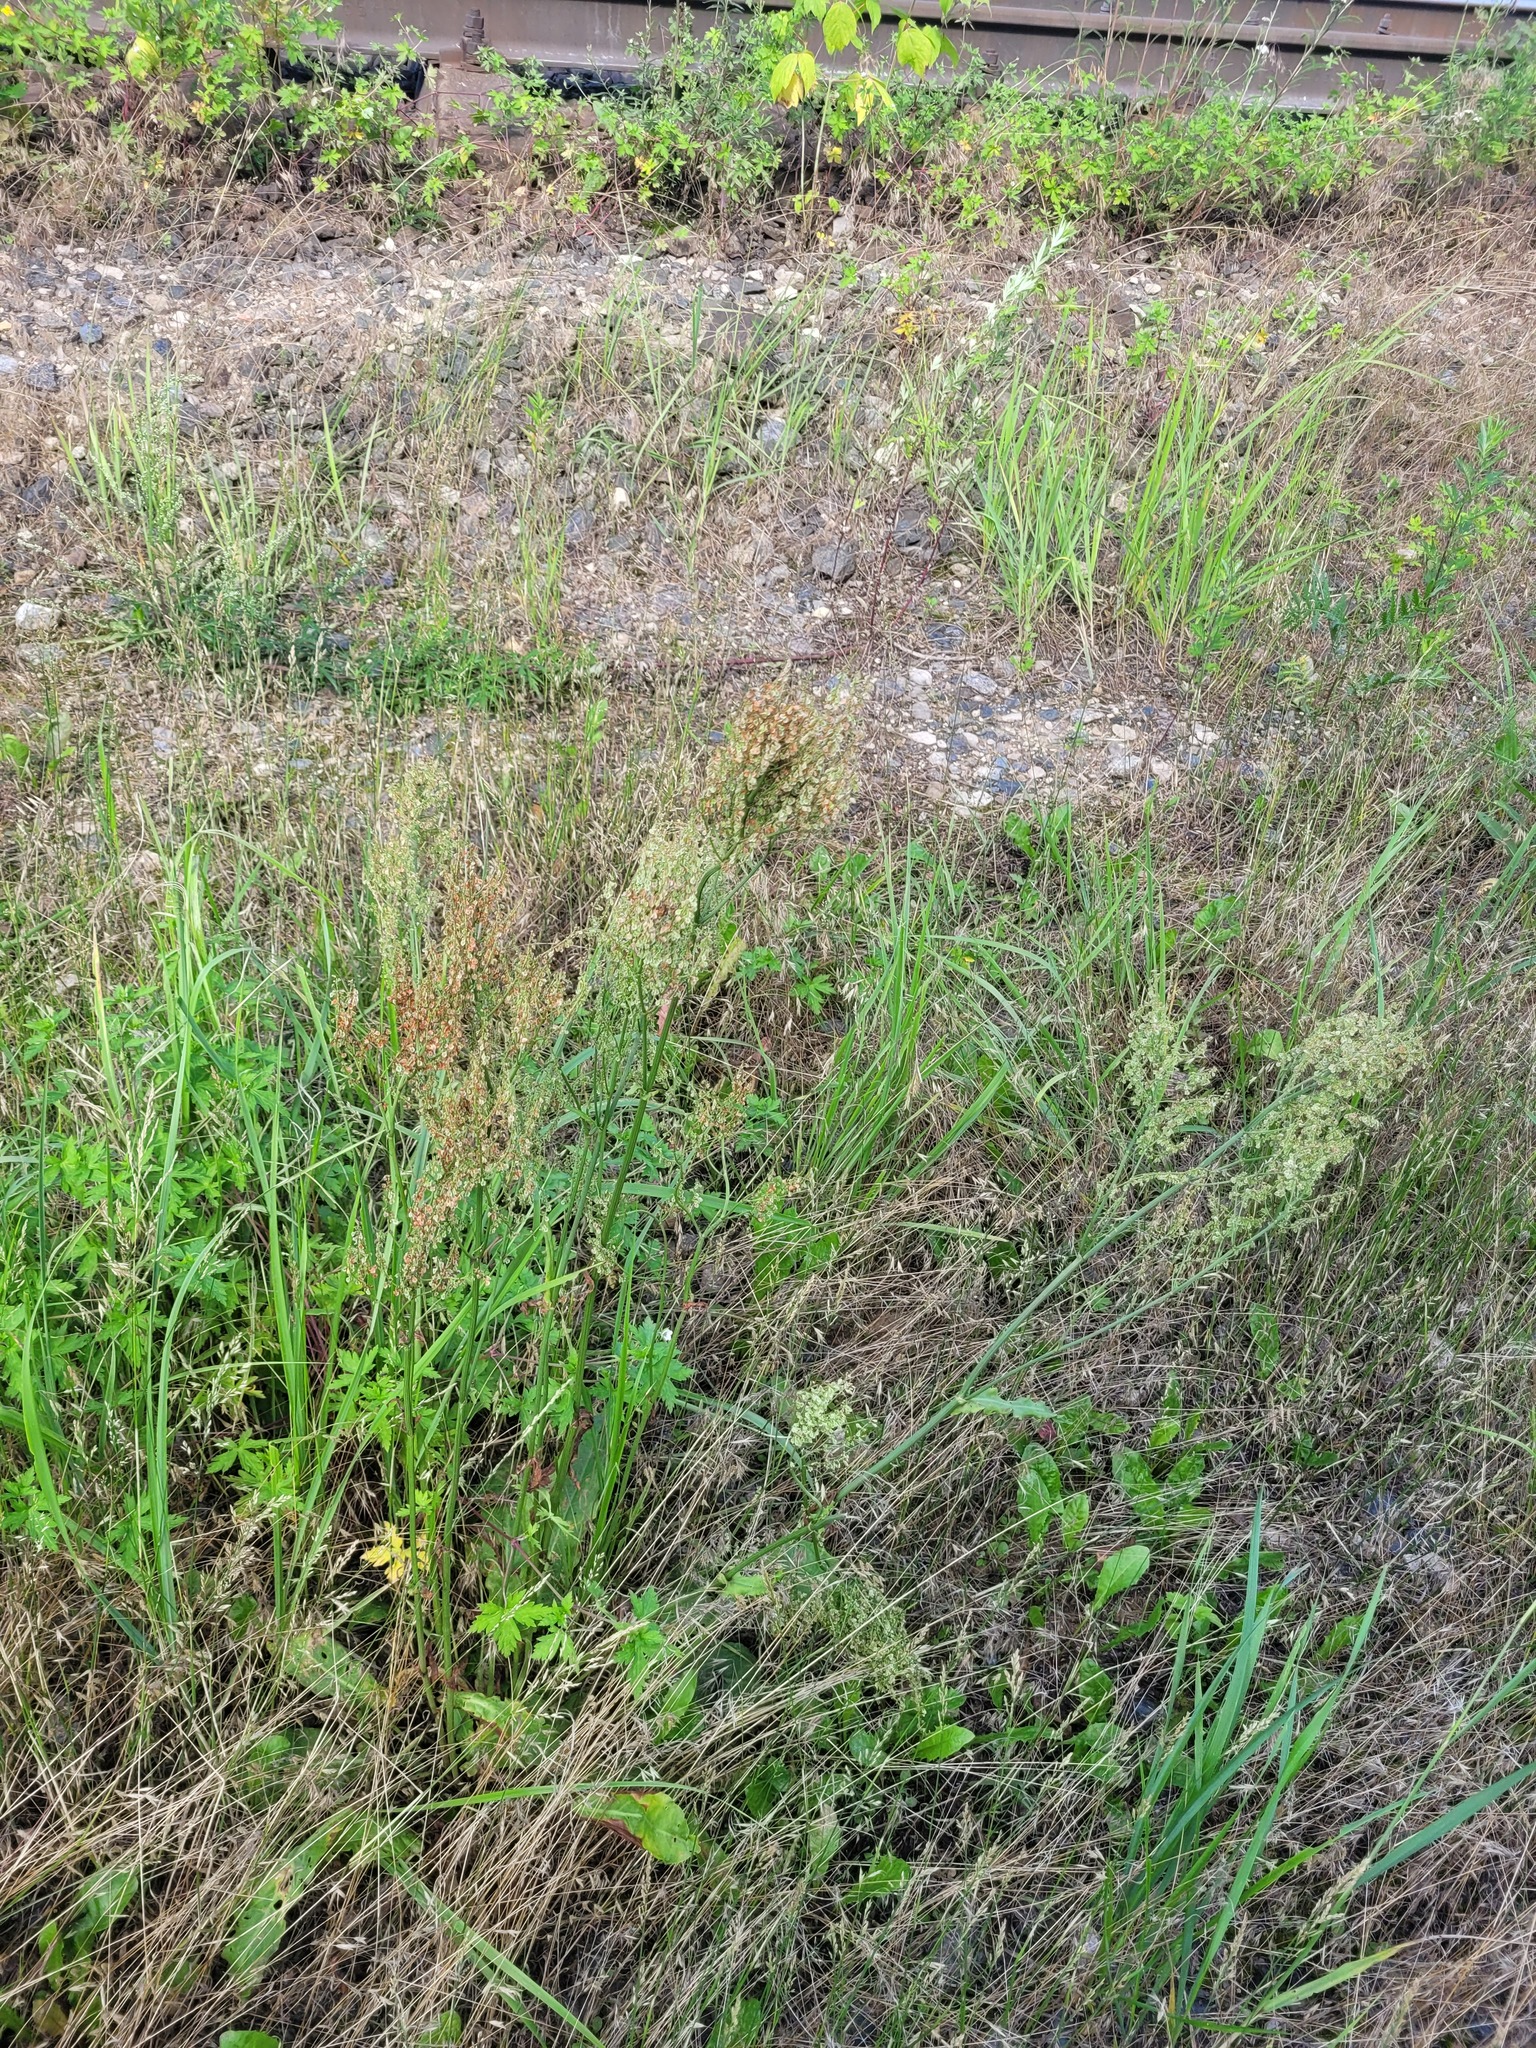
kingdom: Plantae
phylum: Tracheophyta
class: Magnoliopsida
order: Caryophyllales
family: Polygonaceae
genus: Rumex
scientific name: Rumex thyrsiflorus
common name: Garden sorrel
